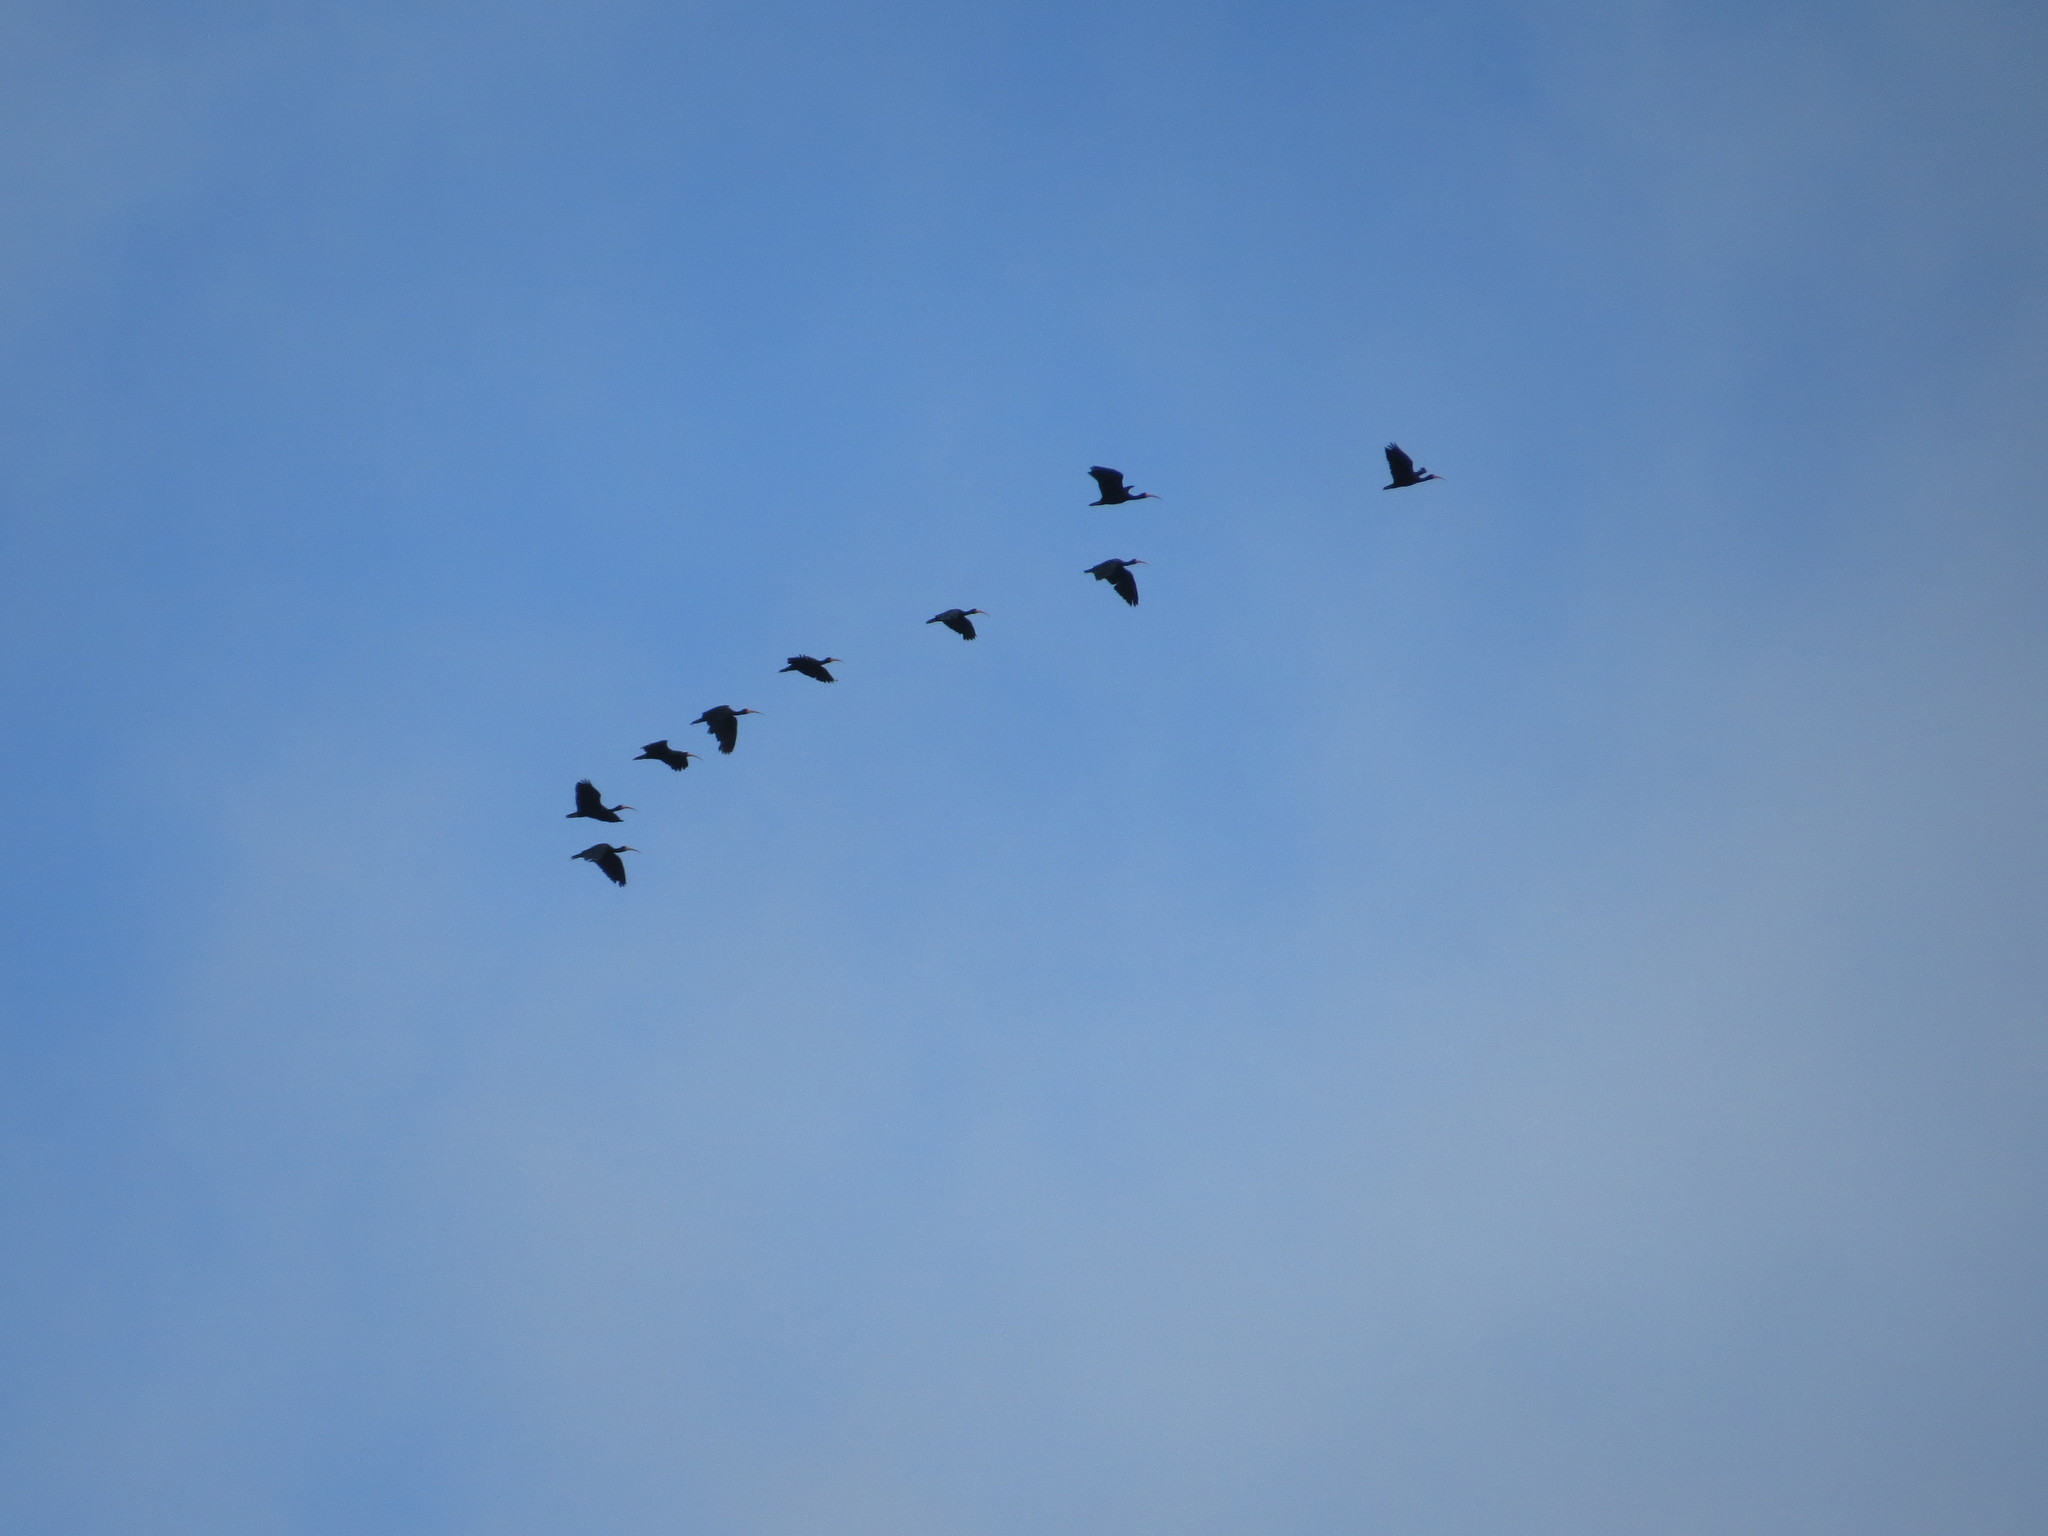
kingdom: Animalia
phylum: Chordata
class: Aves
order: Pelecaniformes
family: Threskiornithidae
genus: Phimosus
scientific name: Phimosus infuscatus
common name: Bare-faced ibis
